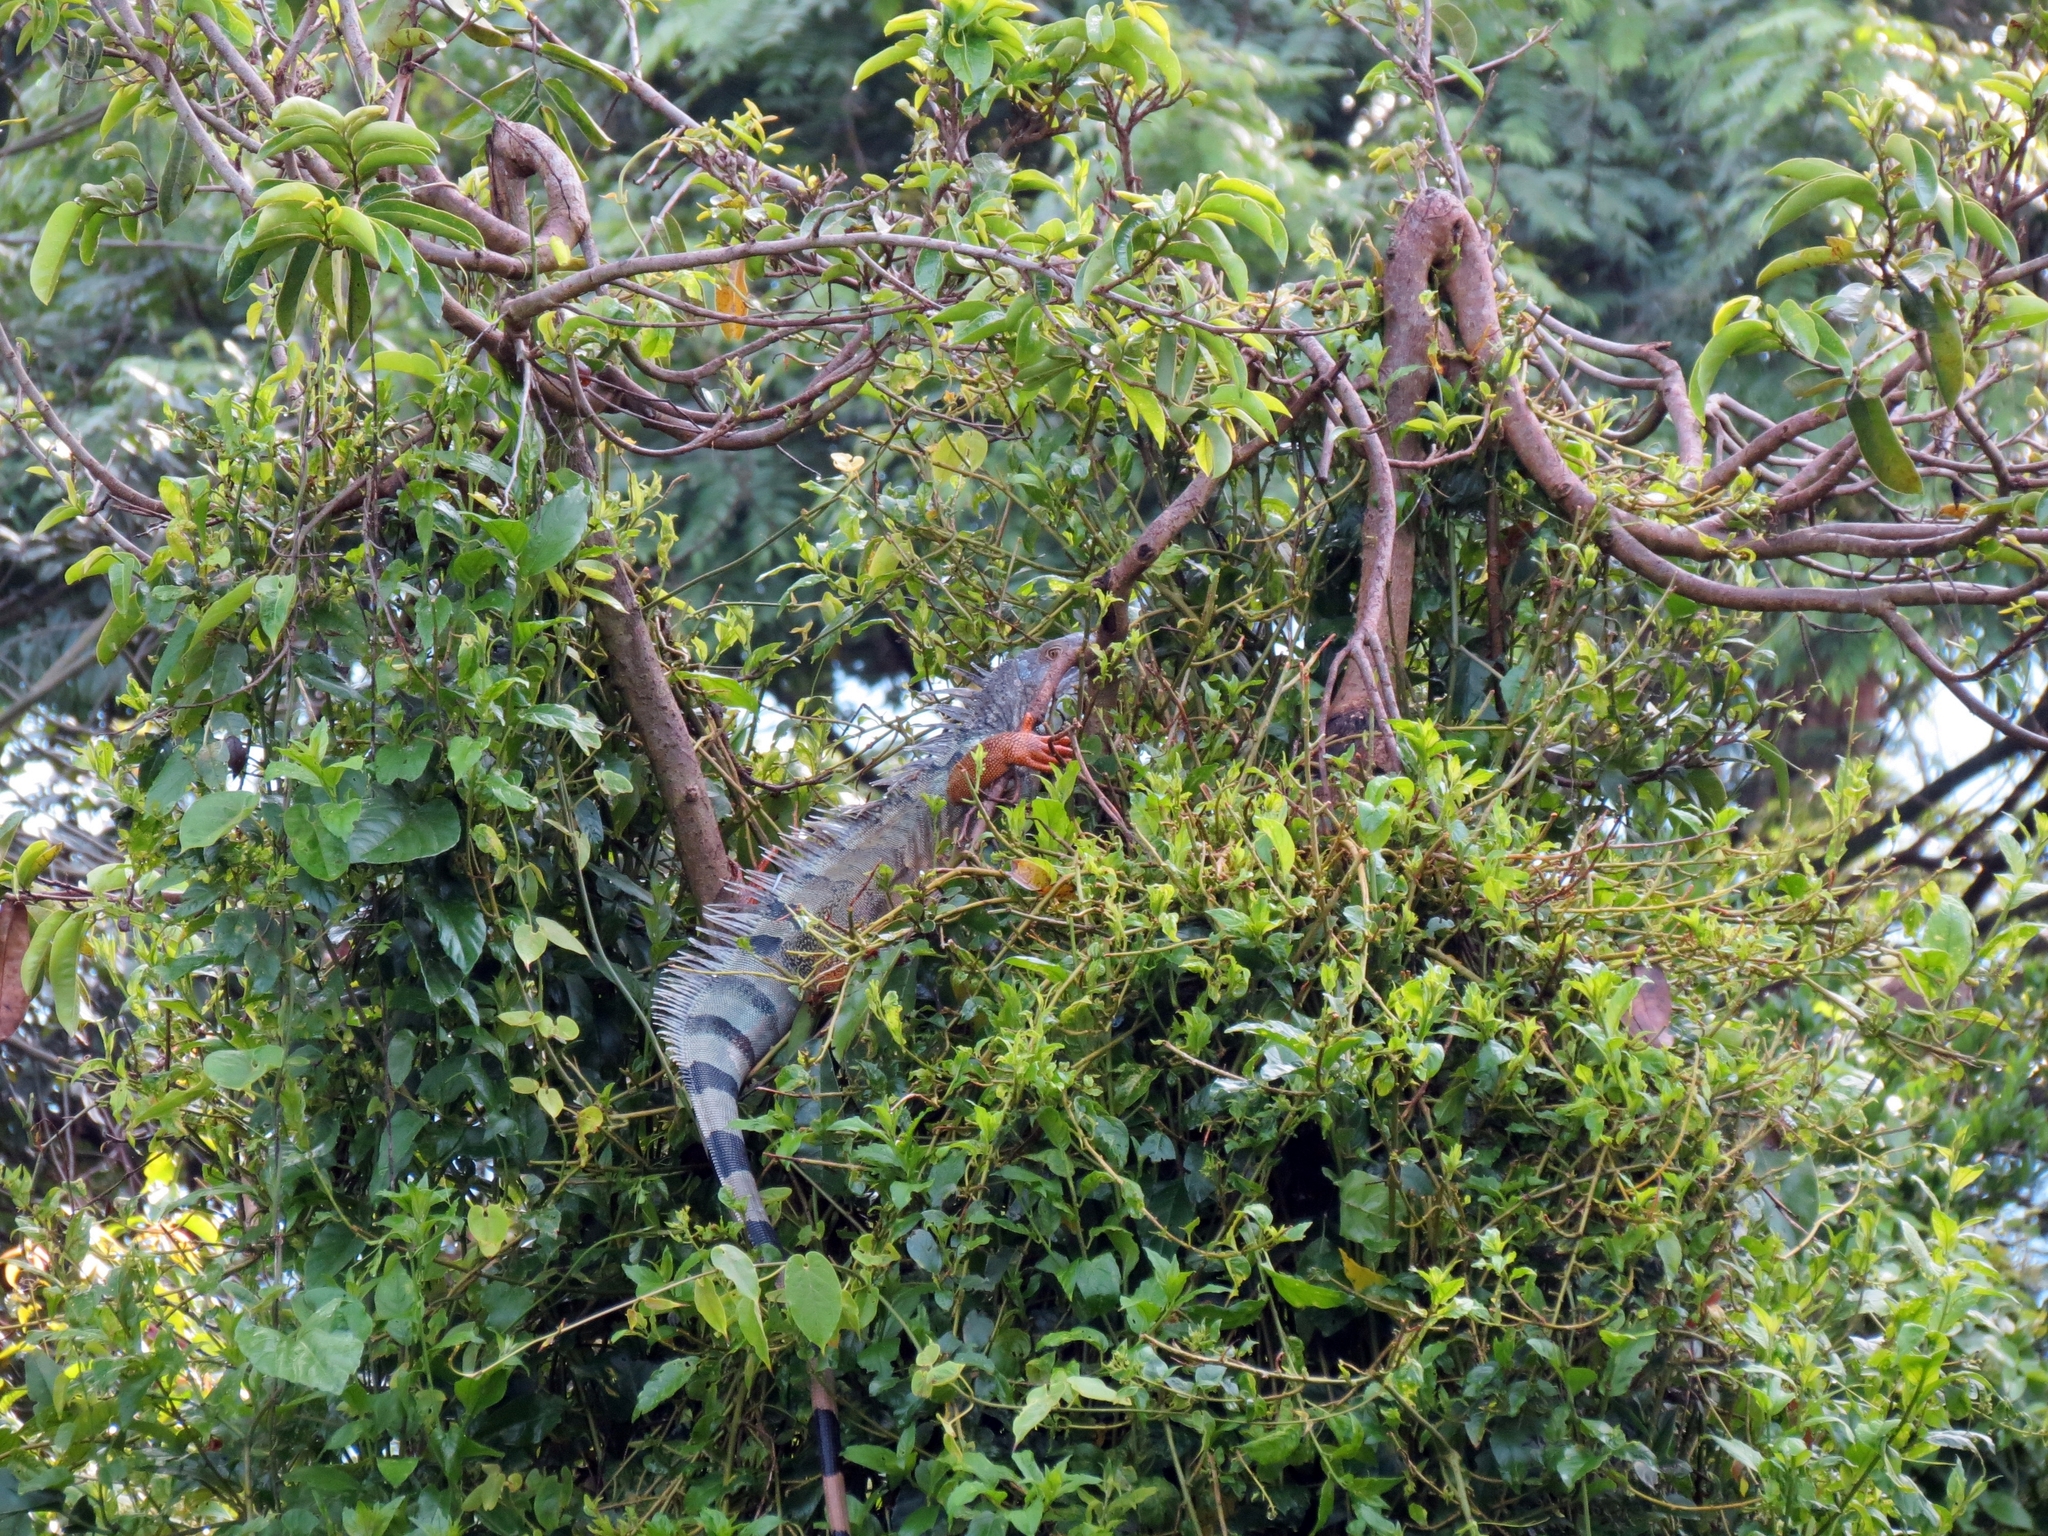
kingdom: Animalia
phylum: Chordata
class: Squamata
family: Iguanidae
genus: Iguana
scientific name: Iguana iguana
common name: Green iguana
